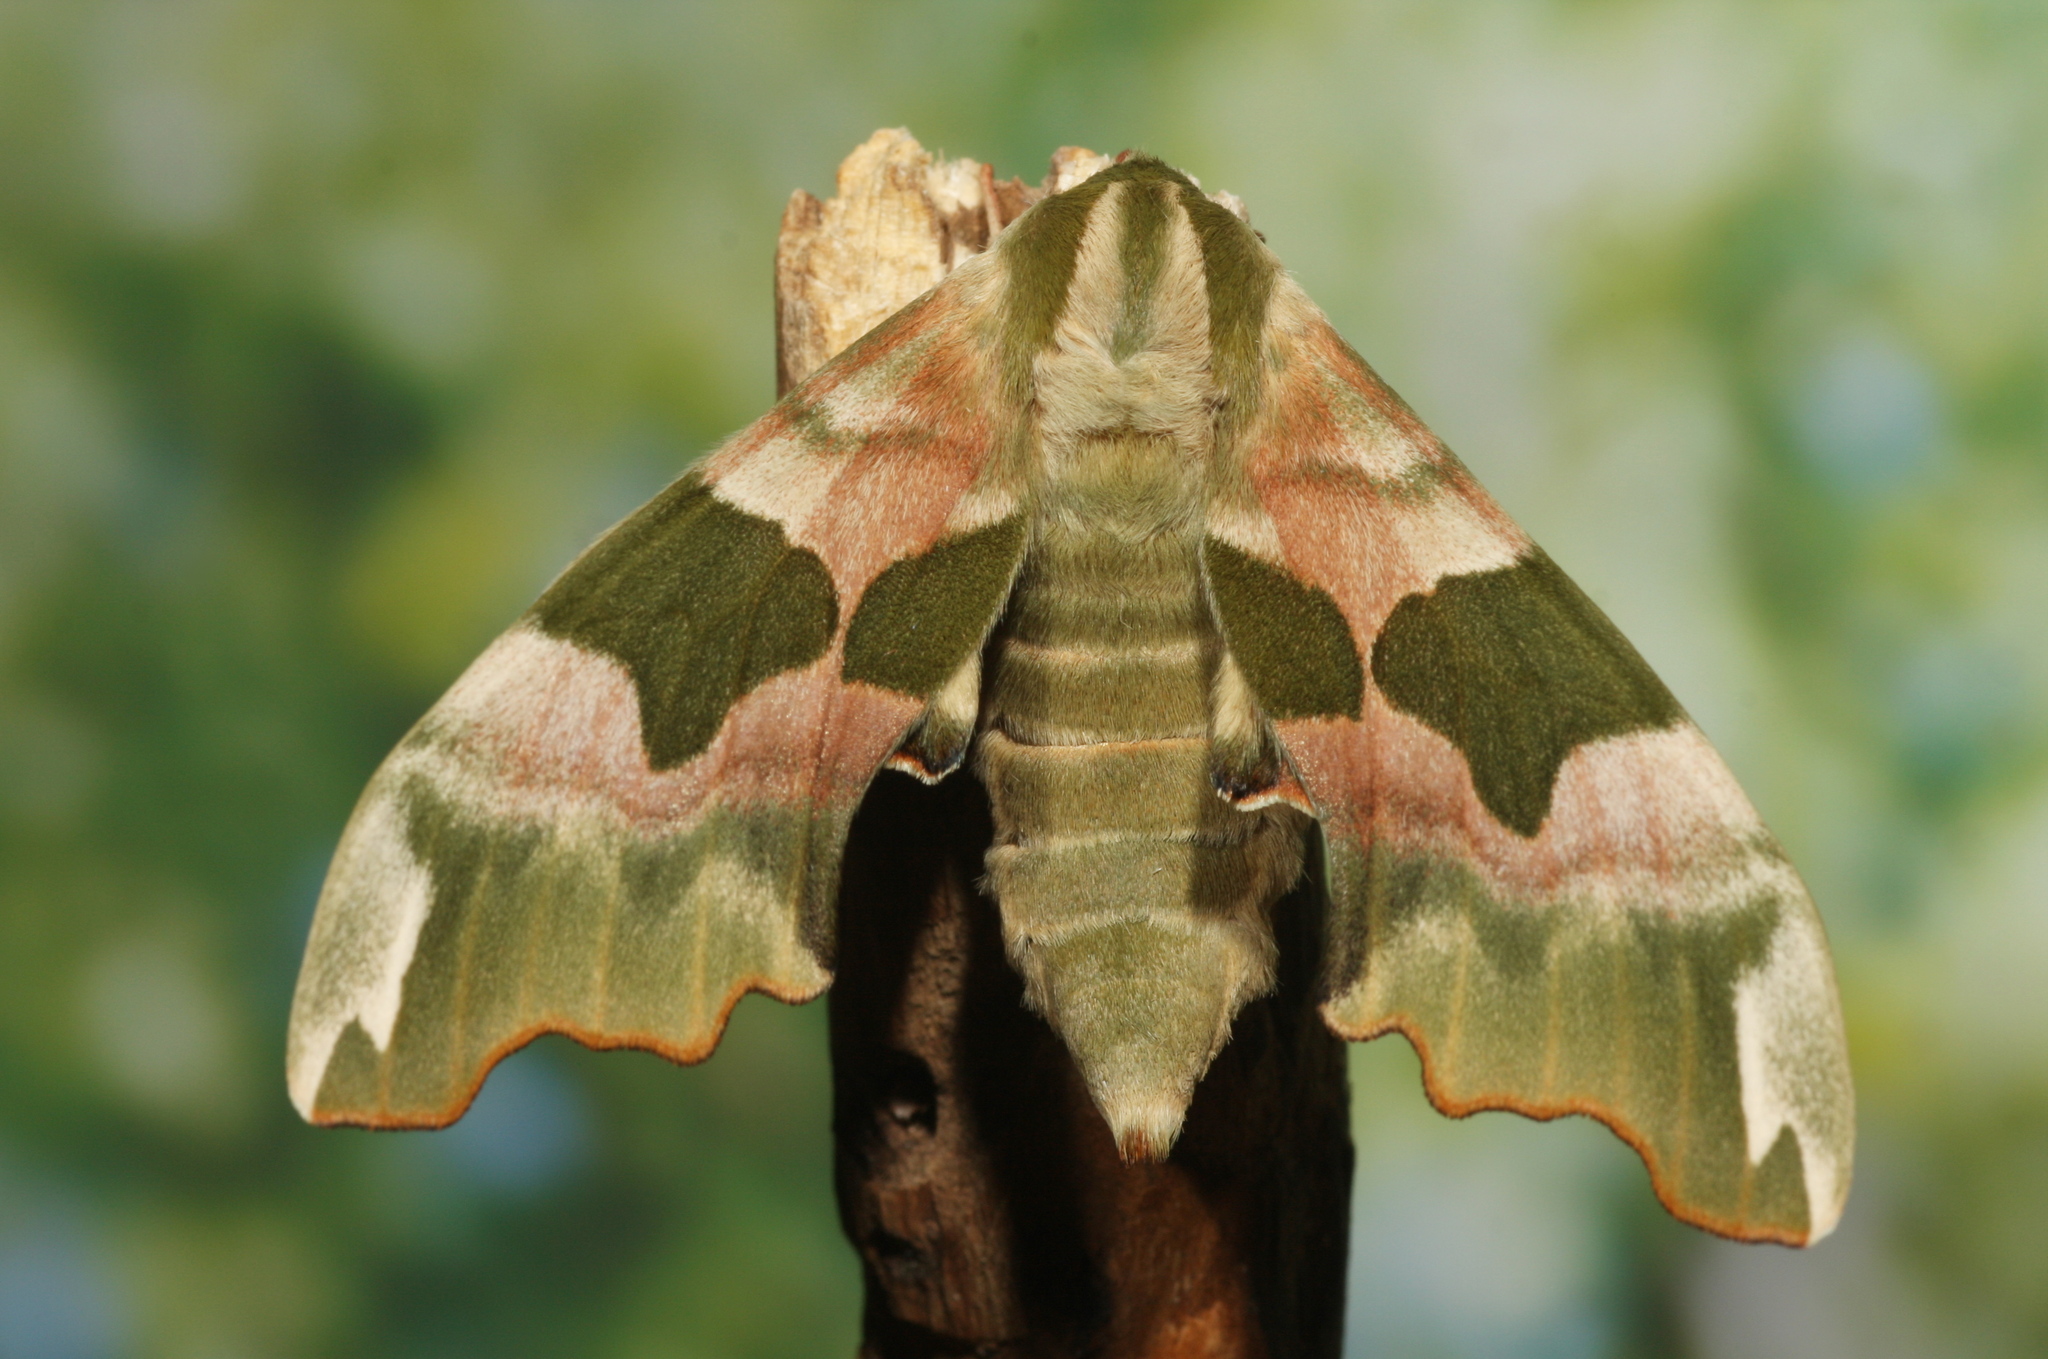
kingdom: Animalia
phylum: Arthropoda
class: Insecta
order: Lepidoptera
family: Sphingidae
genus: Mimas
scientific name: Mimas tiliae
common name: Lime hawk-moth
